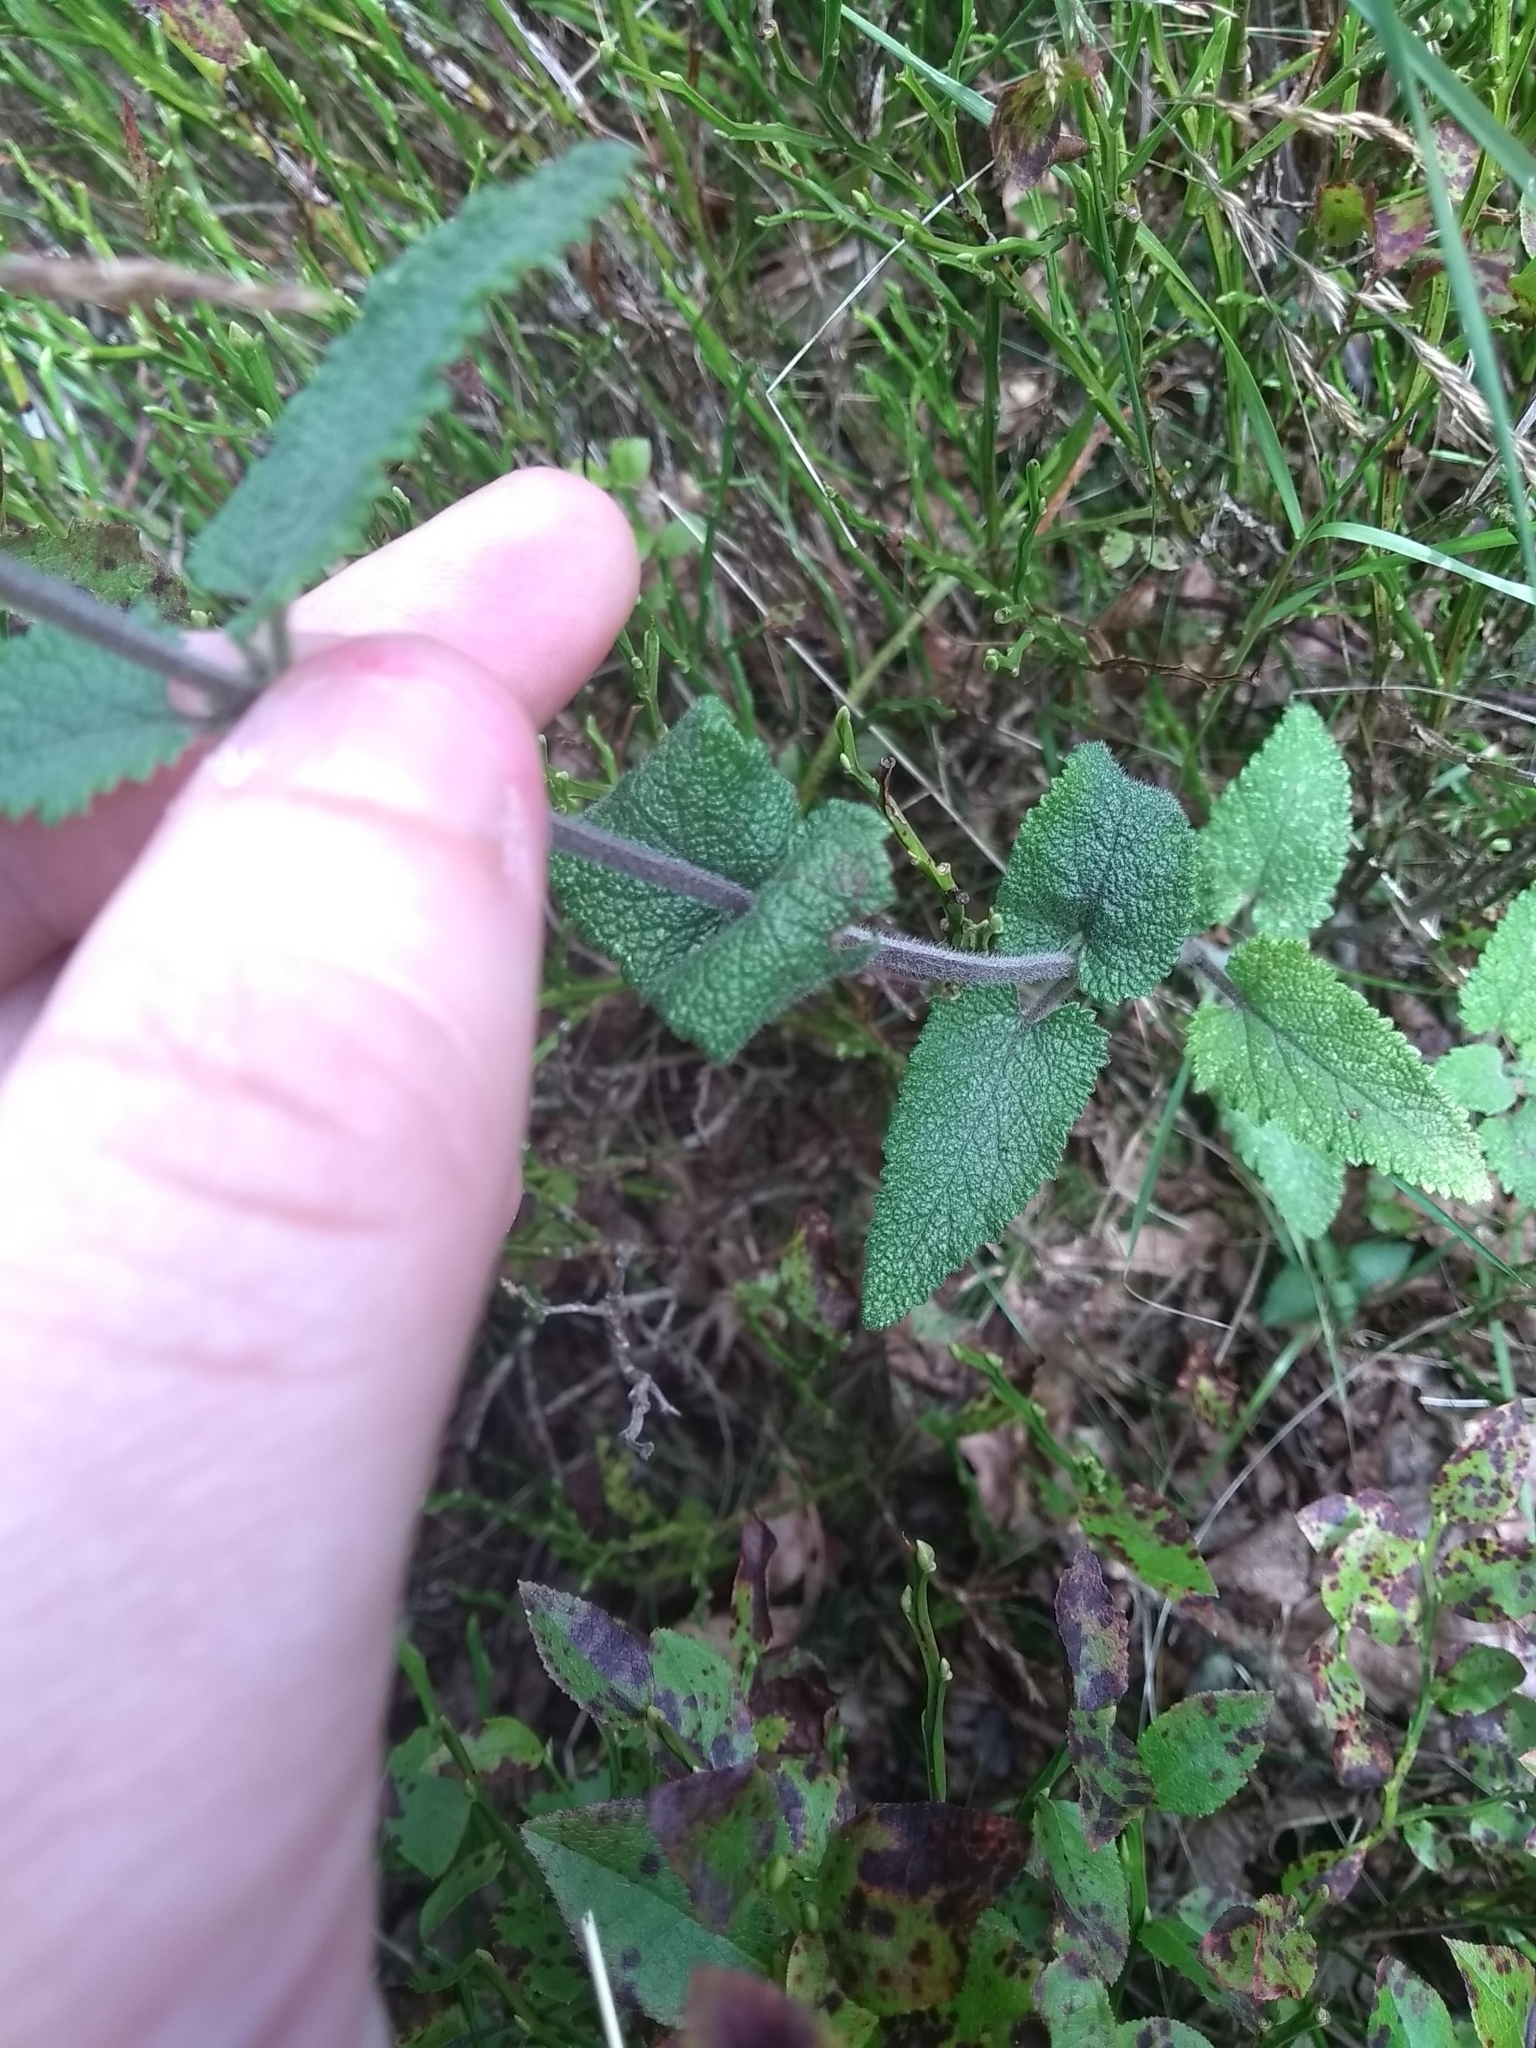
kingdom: Plantae
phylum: Tracheophyta
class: Magnoliopsida
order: Lamiales
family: Lamiaceae
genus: Teucrium
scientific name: Teucrium scorodonia
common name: Woodland germander
